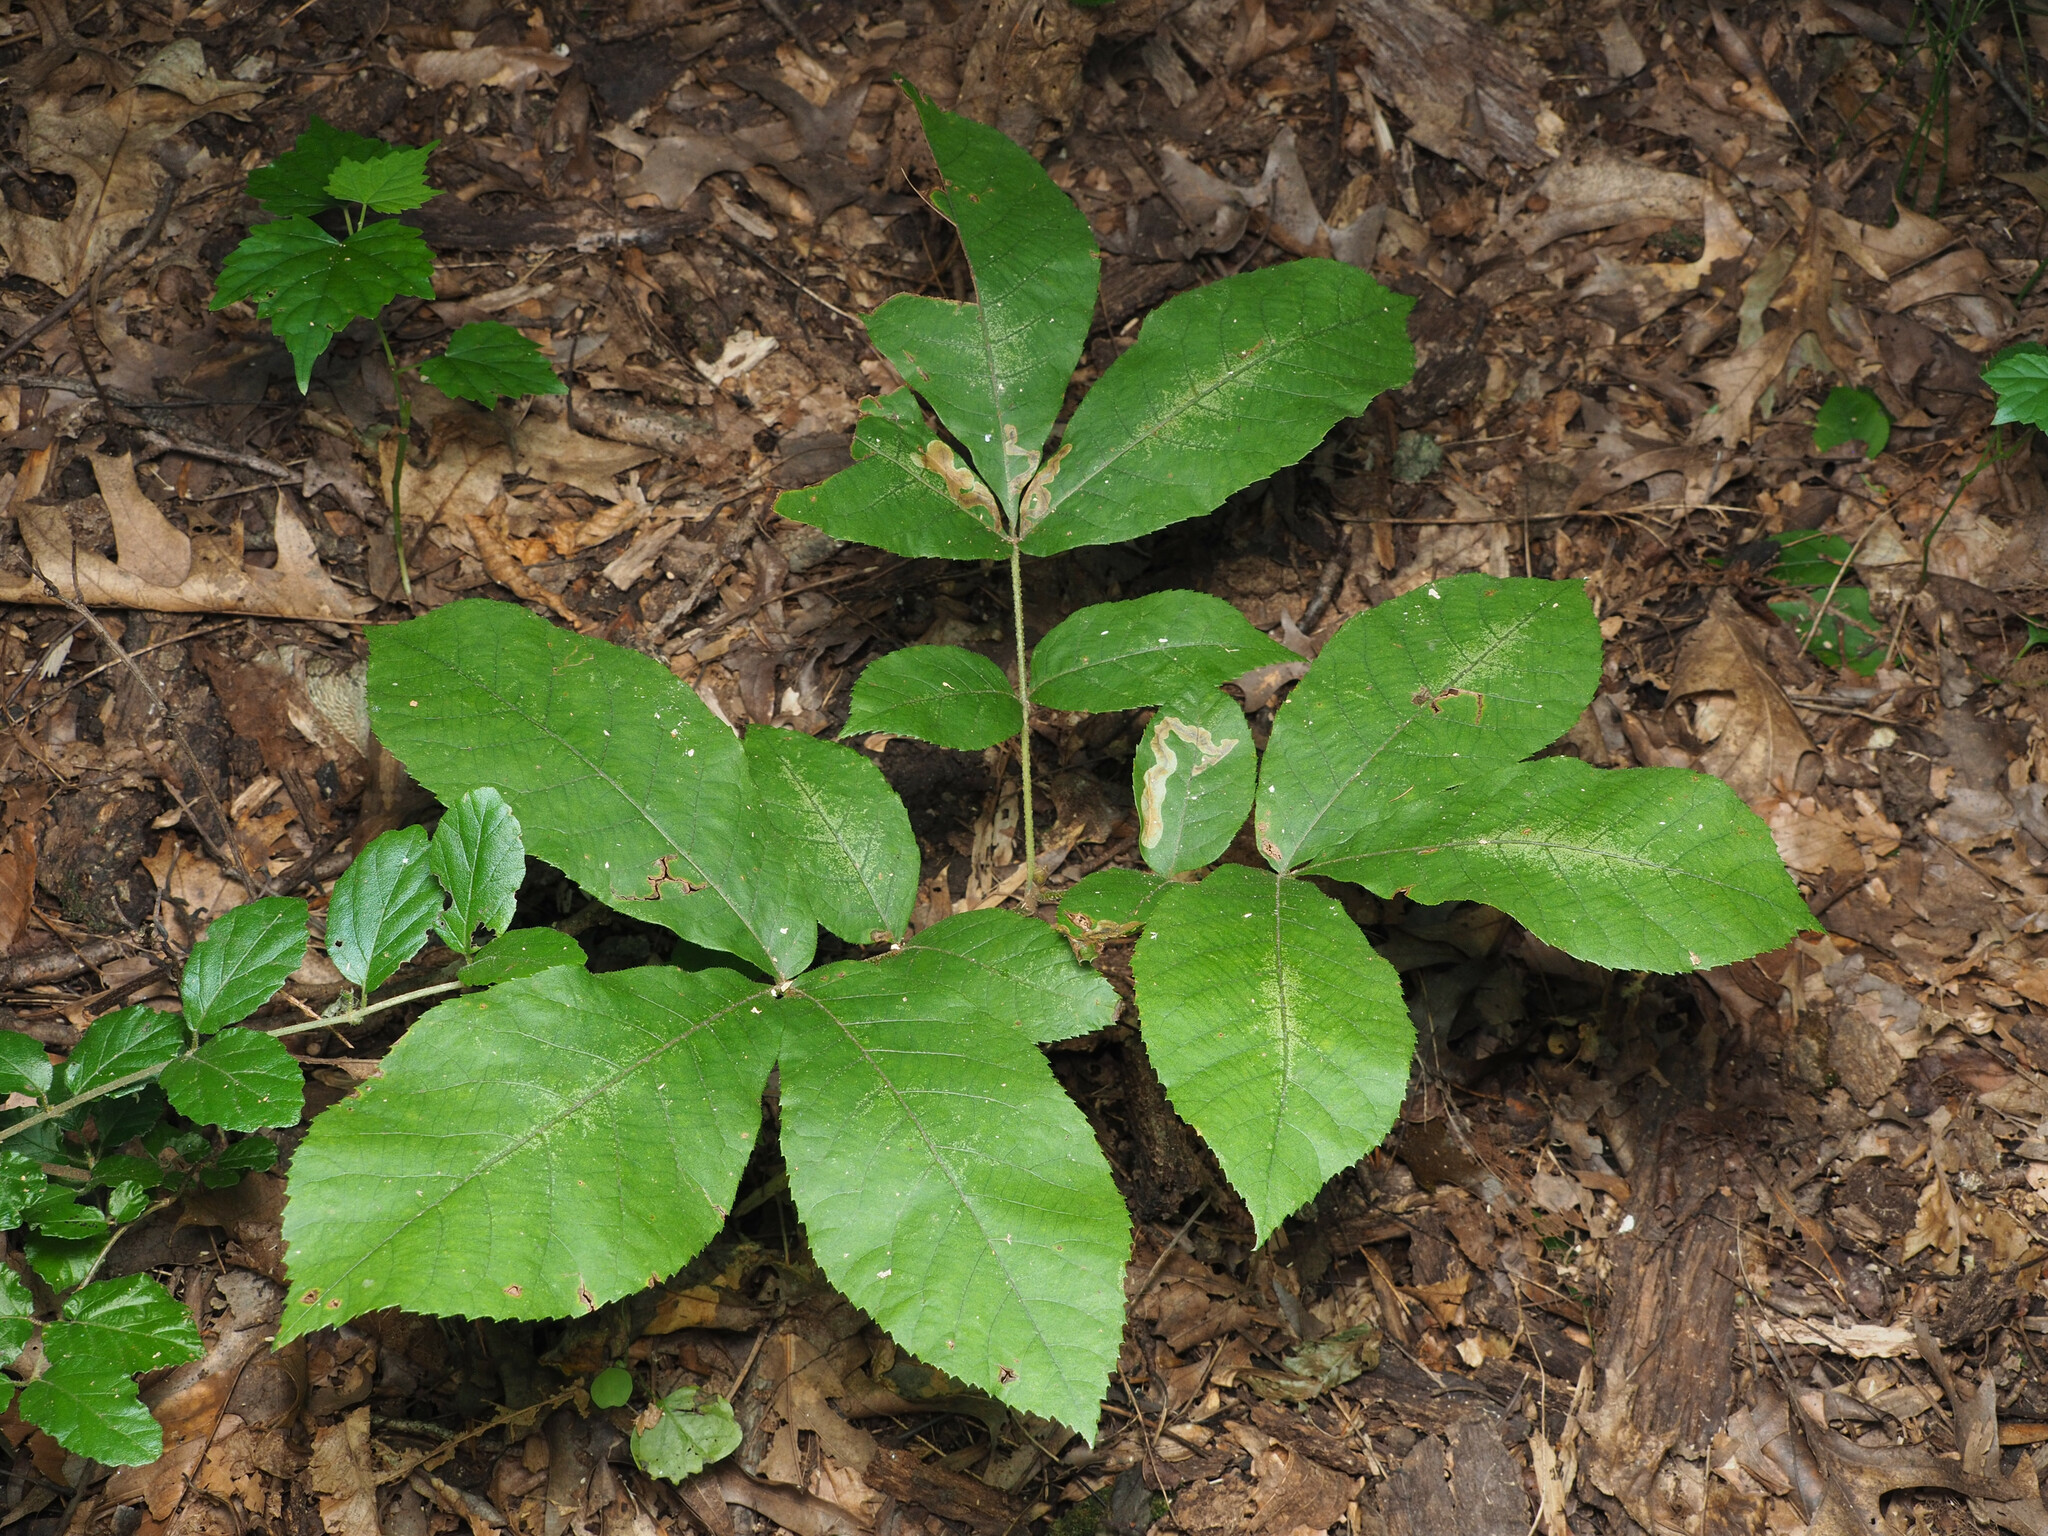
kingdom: Animalia
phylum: Arthropoda
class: Insecta
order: Lepidoptera
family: Gracillariidae
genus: Cameraria
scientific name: Cameraria caryaefoliella
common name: Pecan leafminer moth
